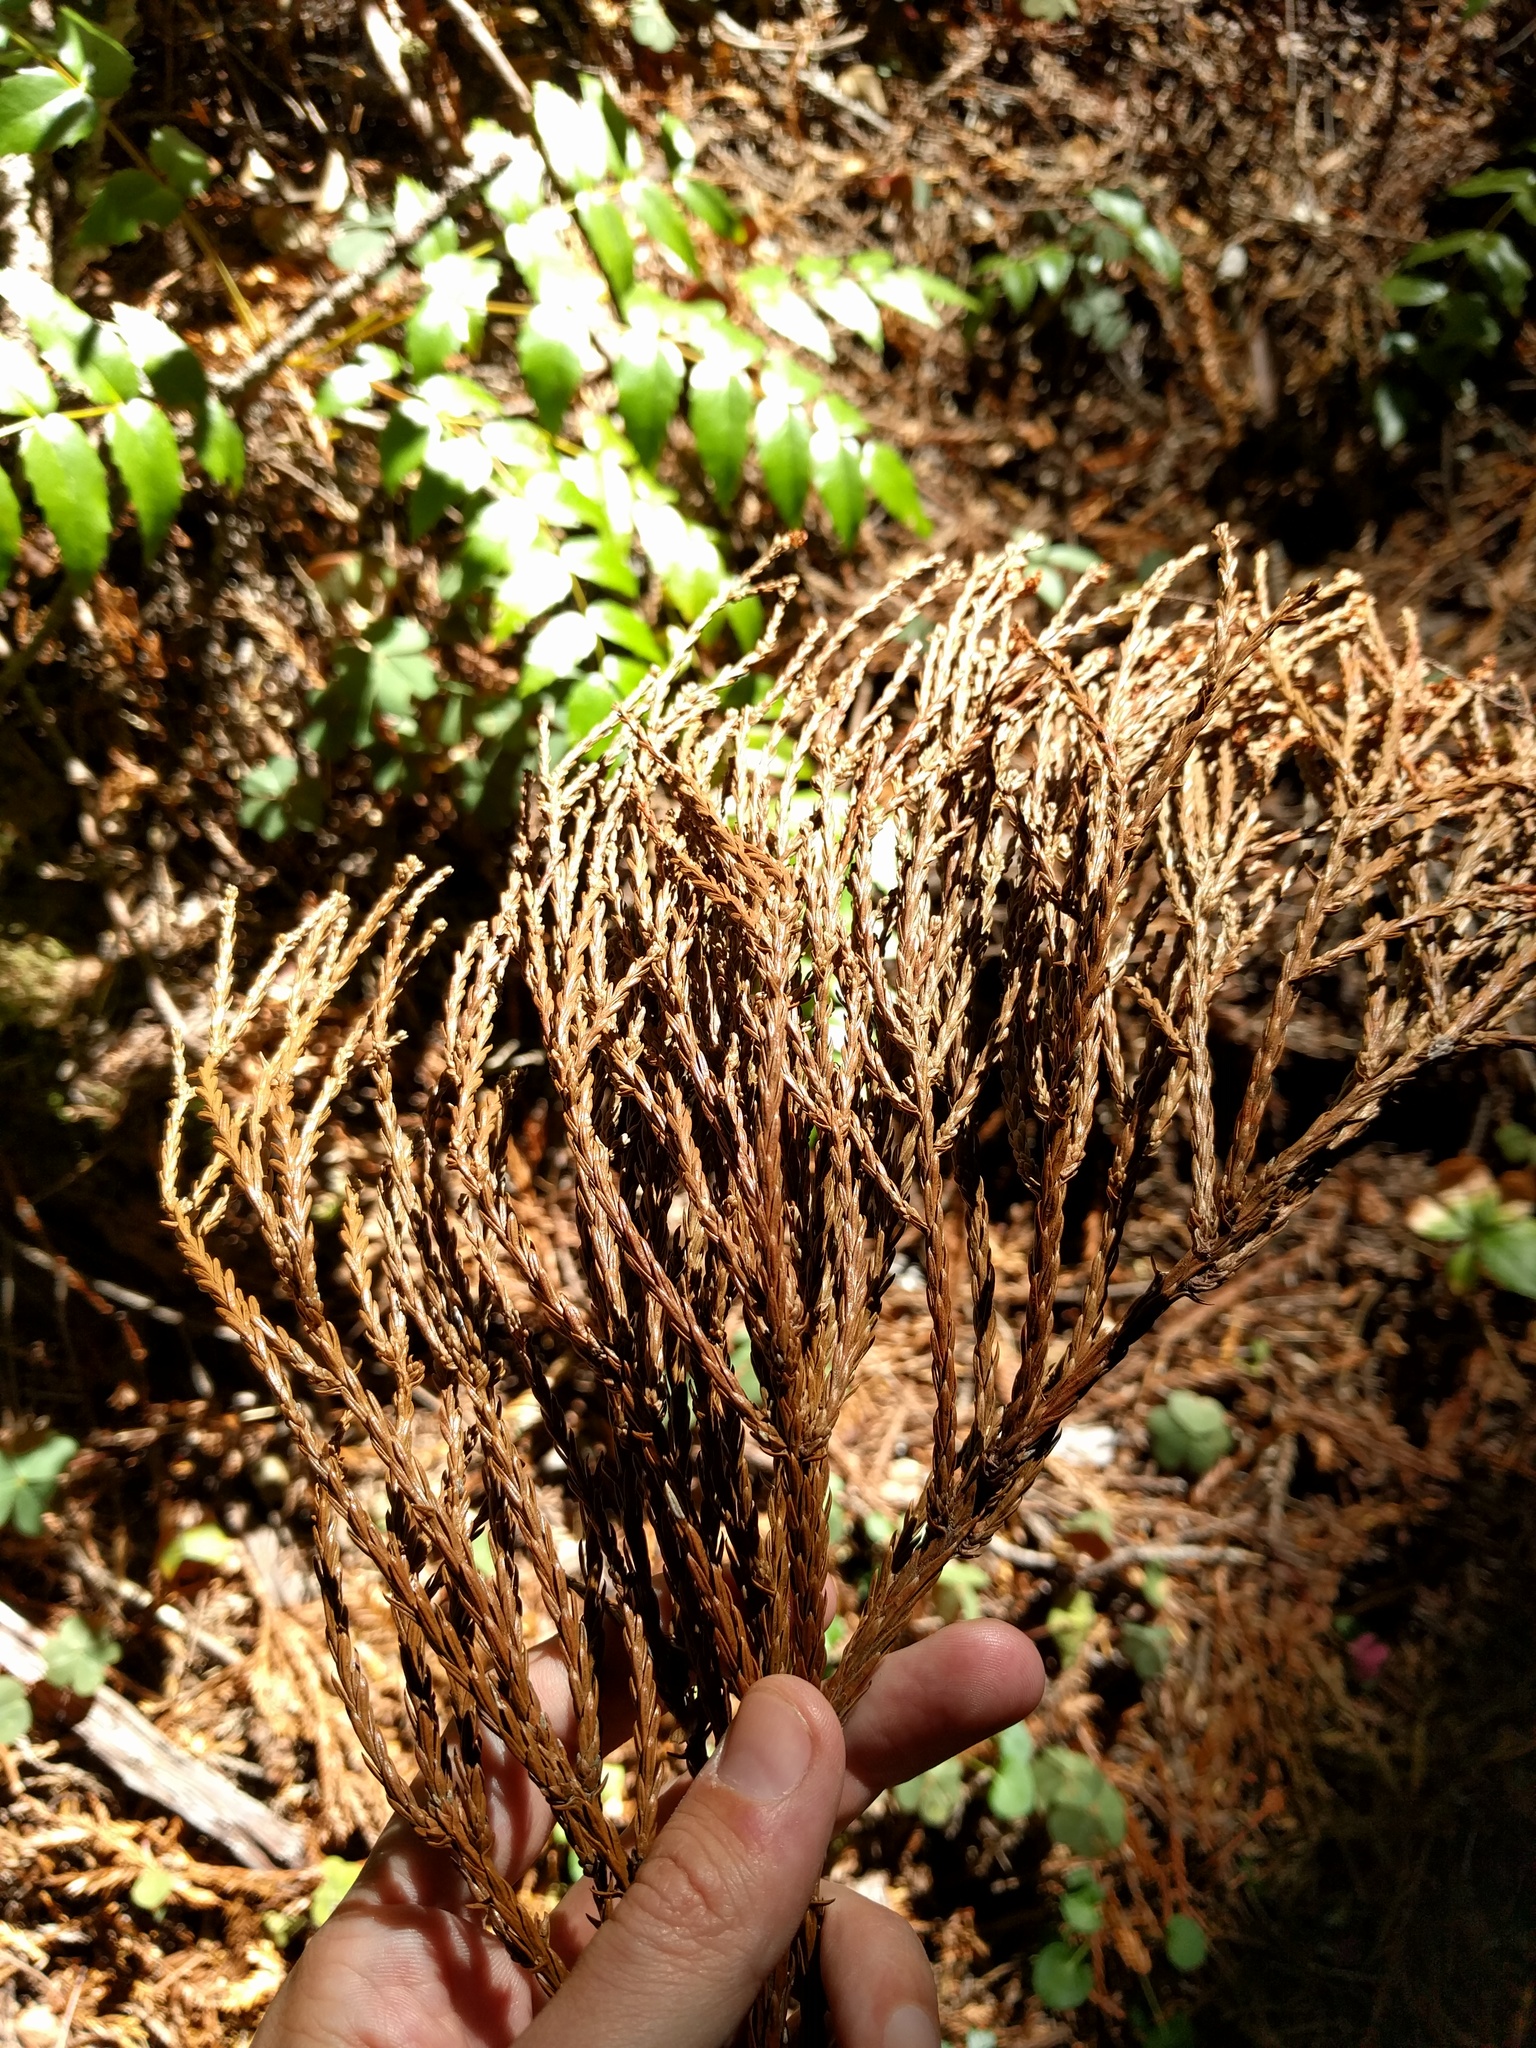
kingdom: Plantae
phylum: Tracheophyta
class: Pinopsida
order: Pinales
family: Cupressaceae
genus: Sequoia
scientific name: Sequoia sempervirens
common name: Coast redwood
